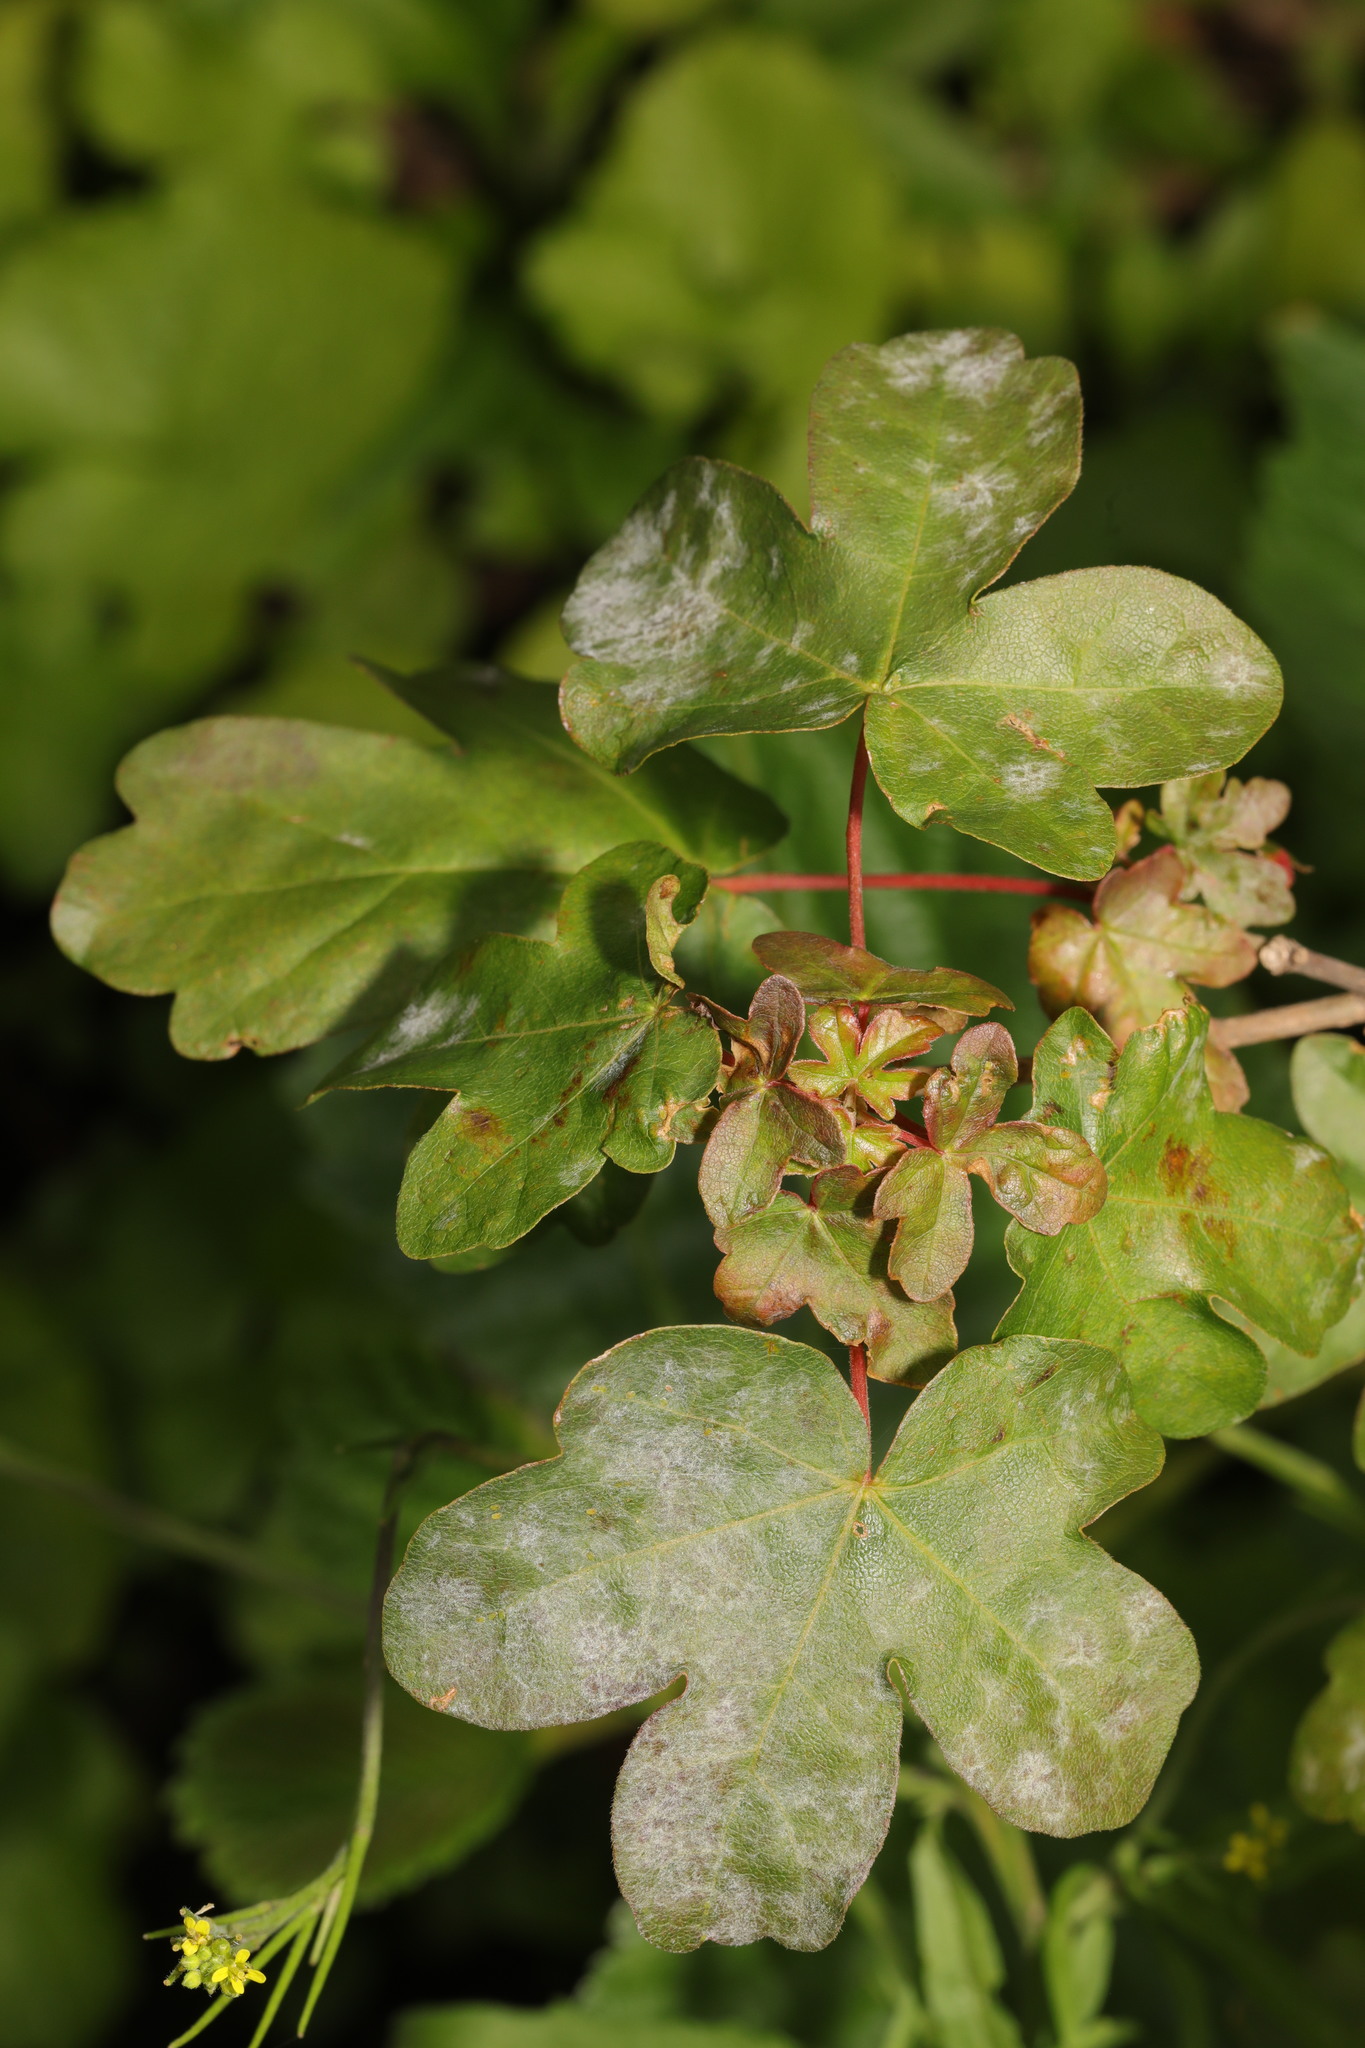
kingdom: Plantae
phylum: Tracheophyta
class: Magnoliopsida
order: Sapindales
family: Sapindaceae
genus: Acer
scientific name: Acer campestre
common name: Field maple
